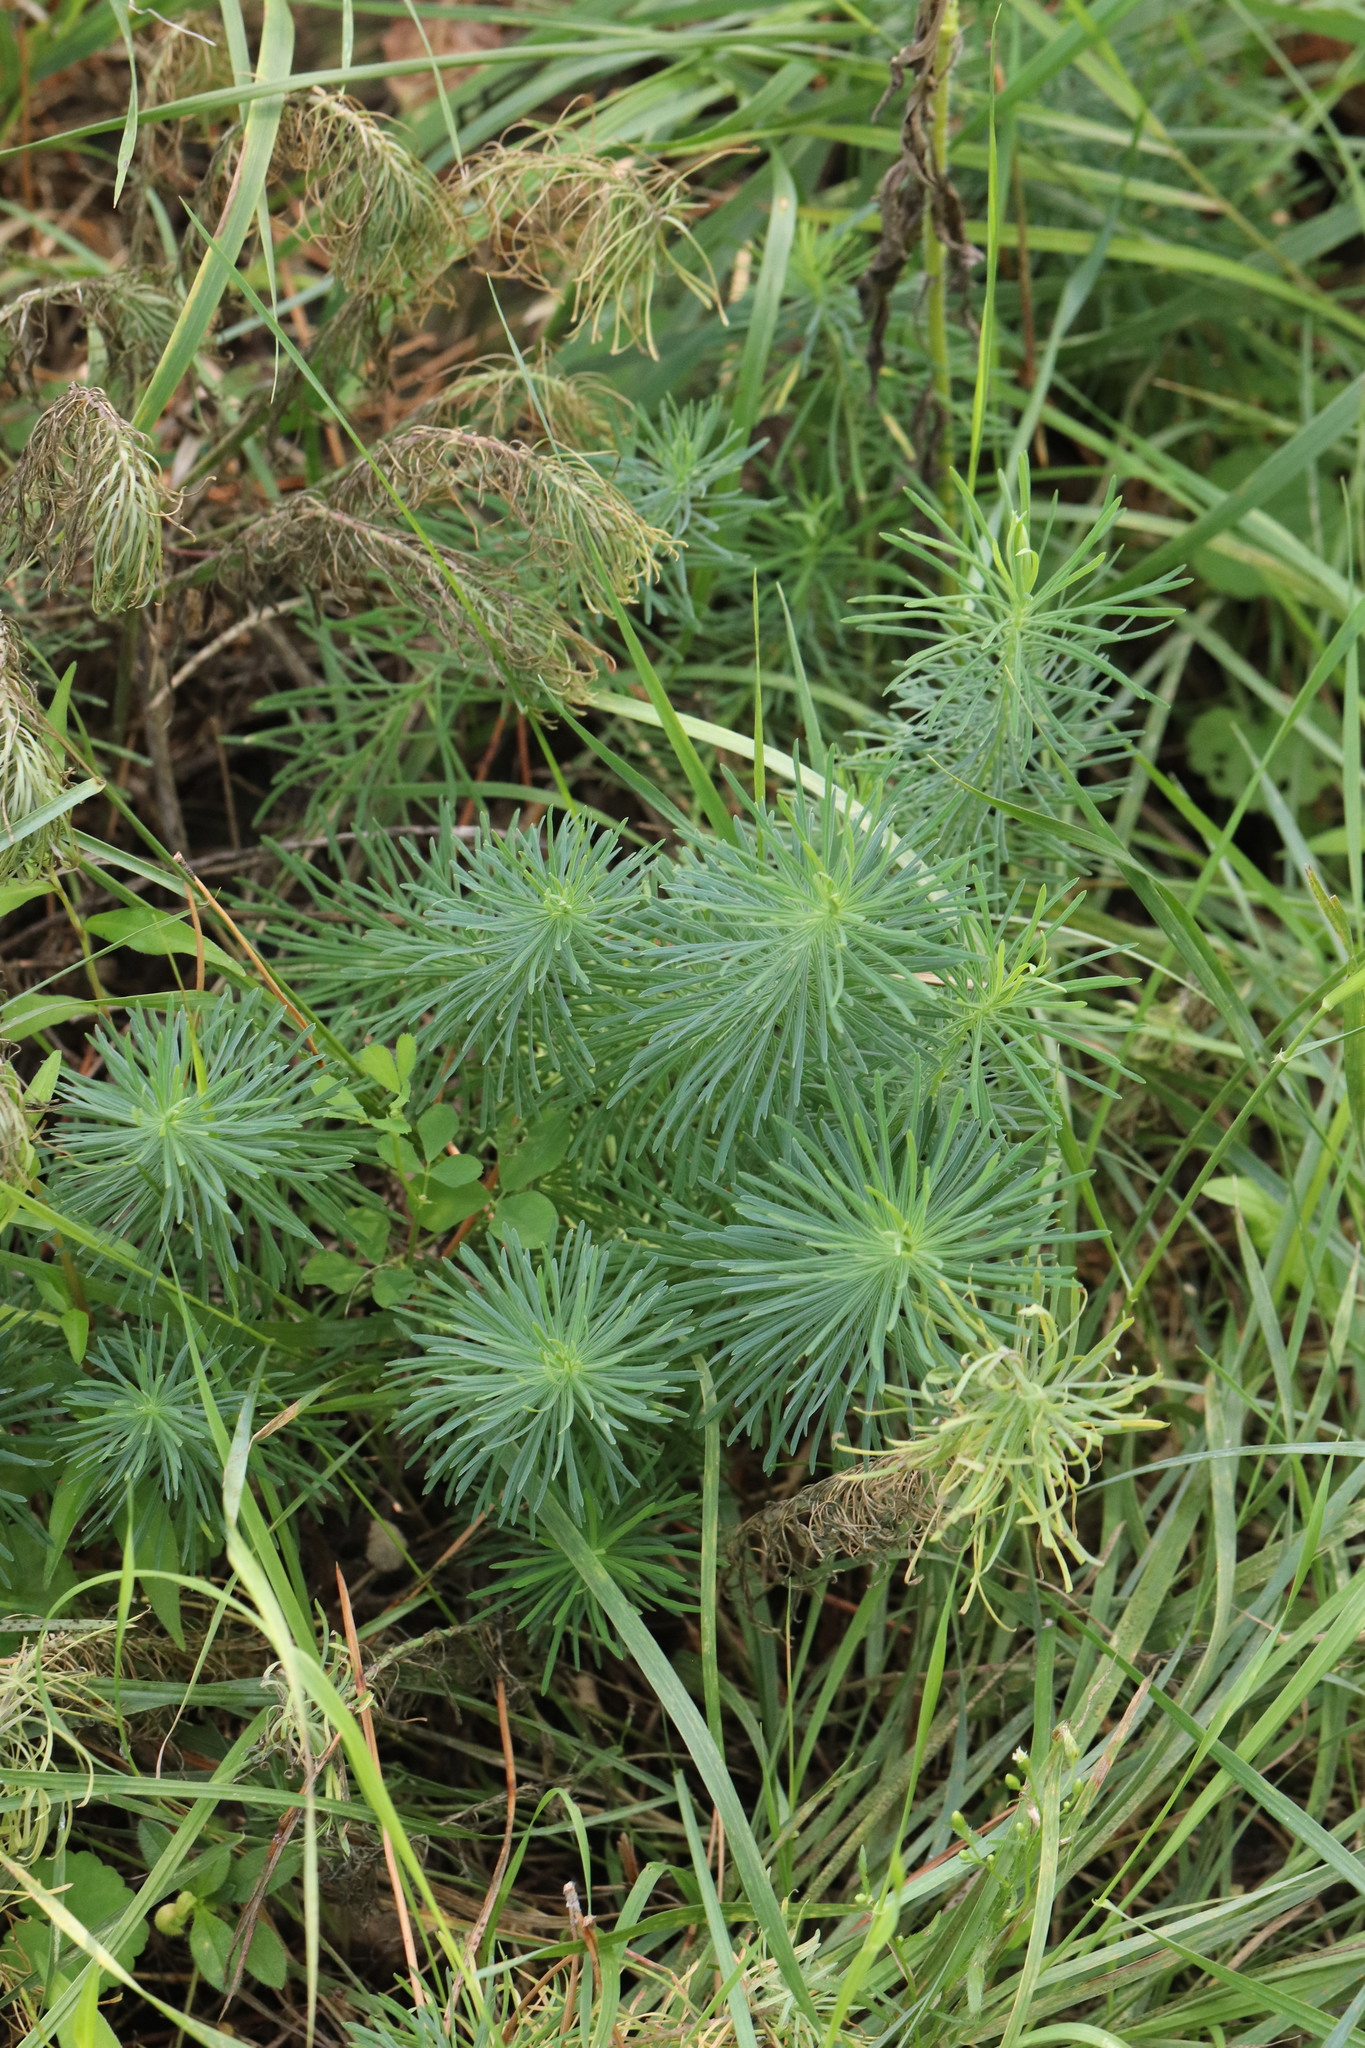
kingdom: Plantae
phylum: Tracheophyta
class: Magnoliopsida
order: Malpighiales
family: Euphorbiaceae
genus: Euphorbia
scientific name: Euphorbia cyparissias
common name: Cypress spurge
